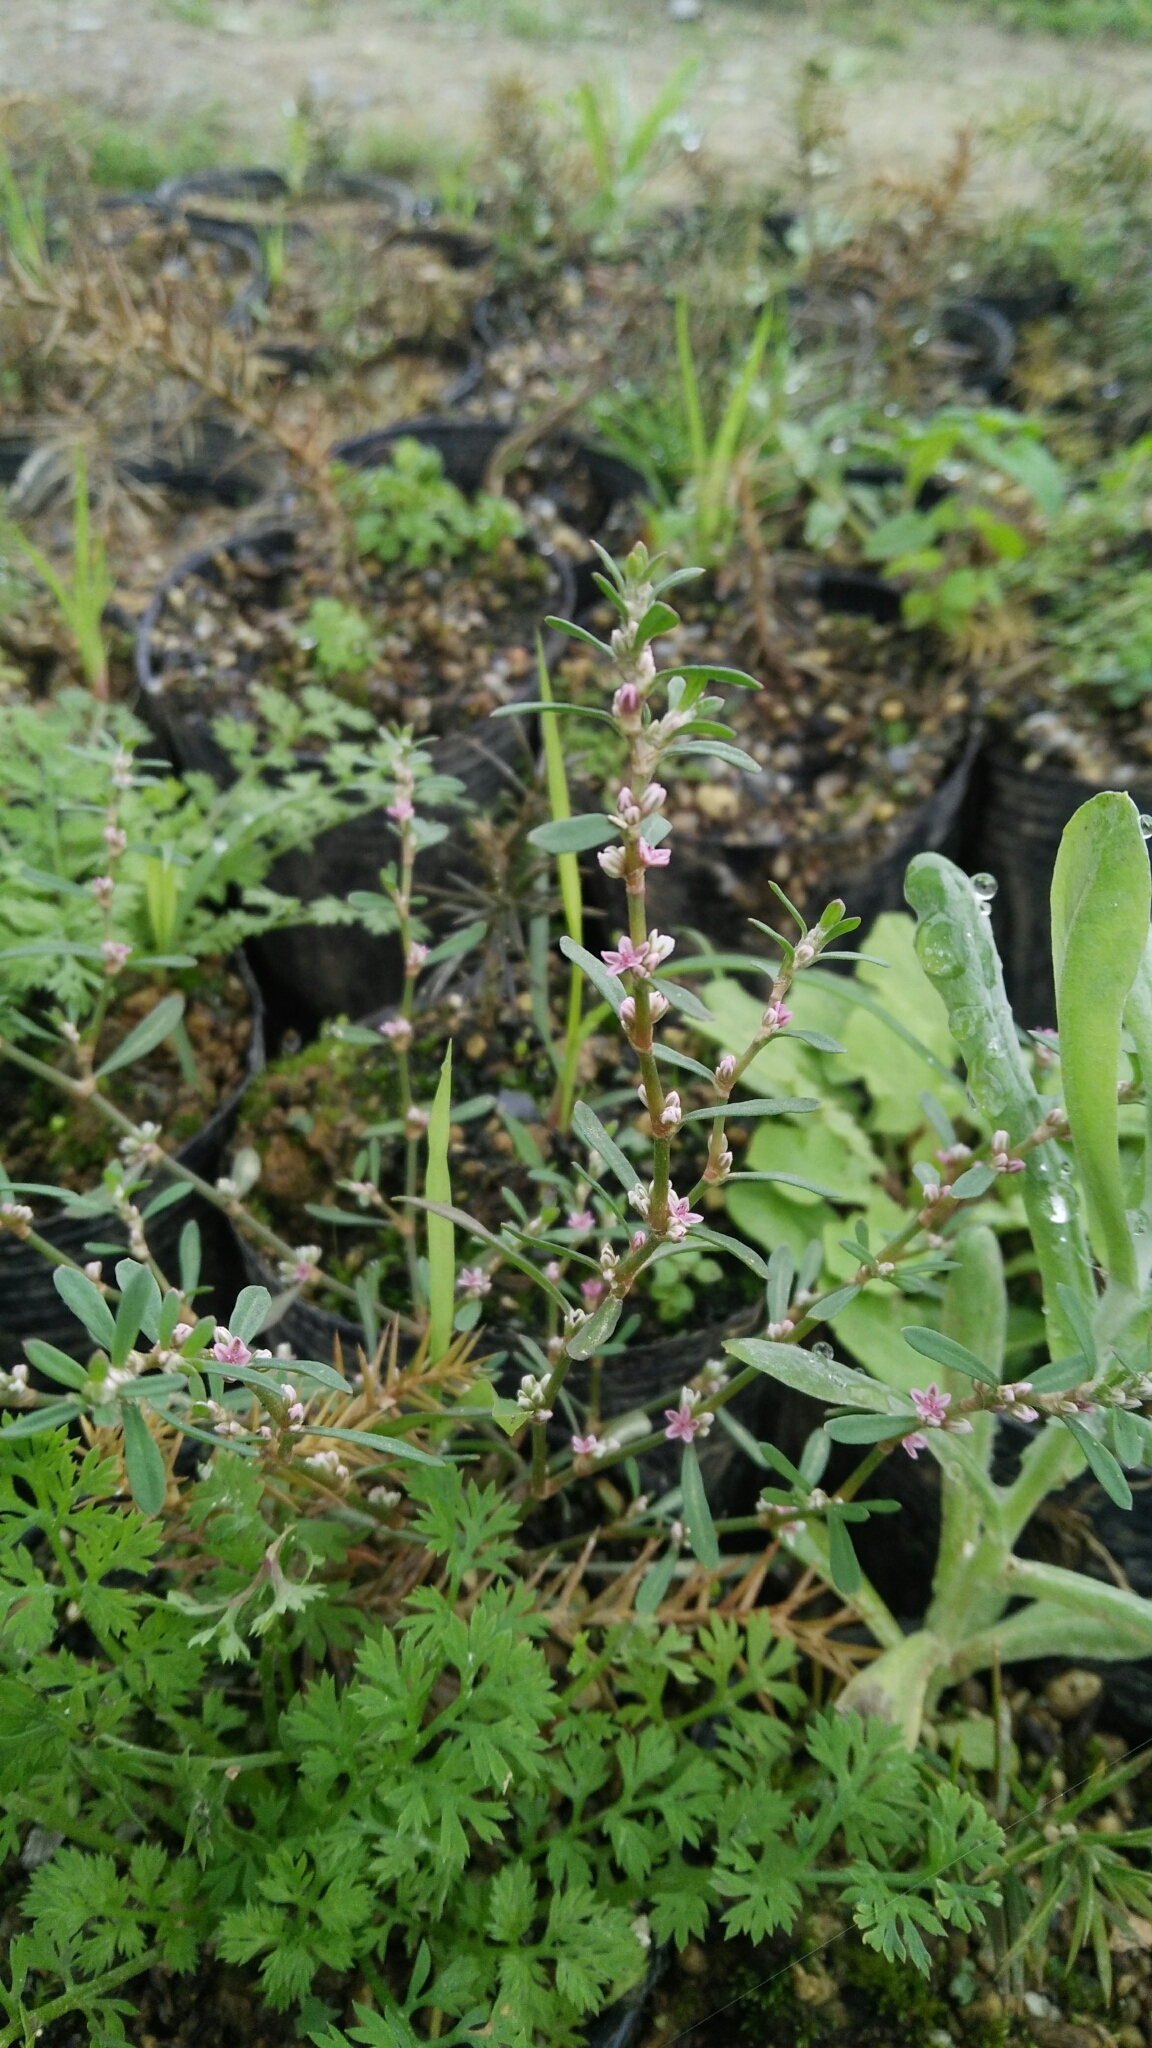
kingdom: Plantae
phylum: Tracheophyta
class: Magnoliopsida
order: Caryophyllales
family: Polygonaceae
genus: Polygonum
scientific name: Polygonum plebeium
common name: Common knotweed
